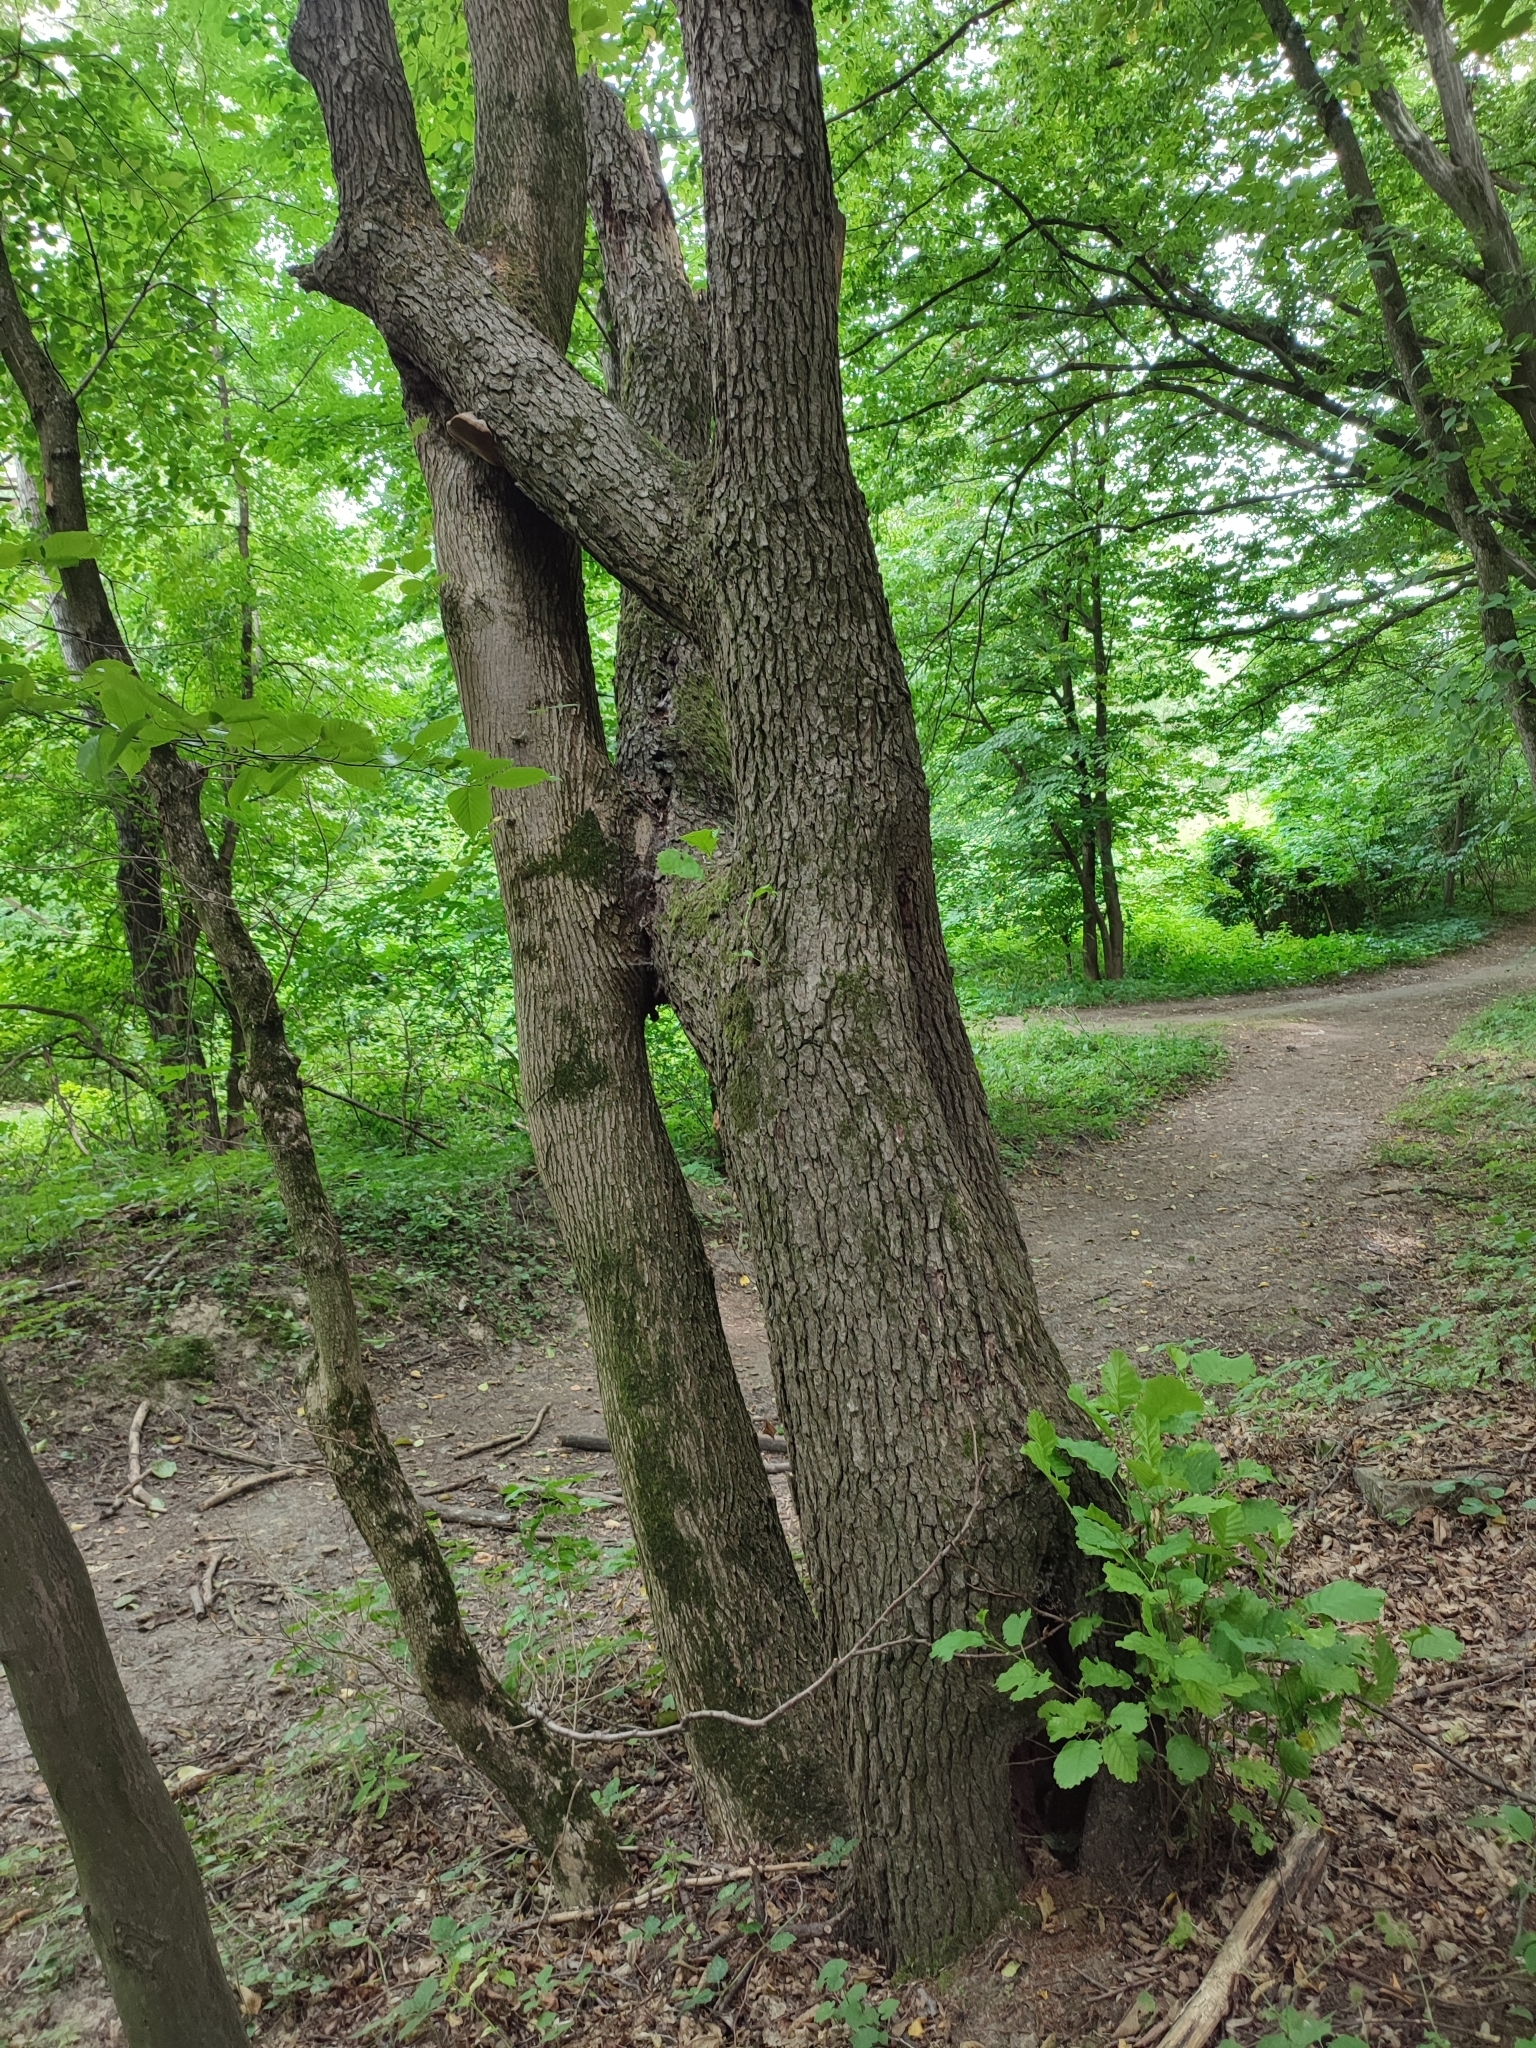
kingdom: Plantae
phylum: Tracheophyta
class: Magnoliopsida
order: Fagales
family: Fagaceae
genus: Quercus
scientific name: Quercus robur
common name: Pedunculate oak
